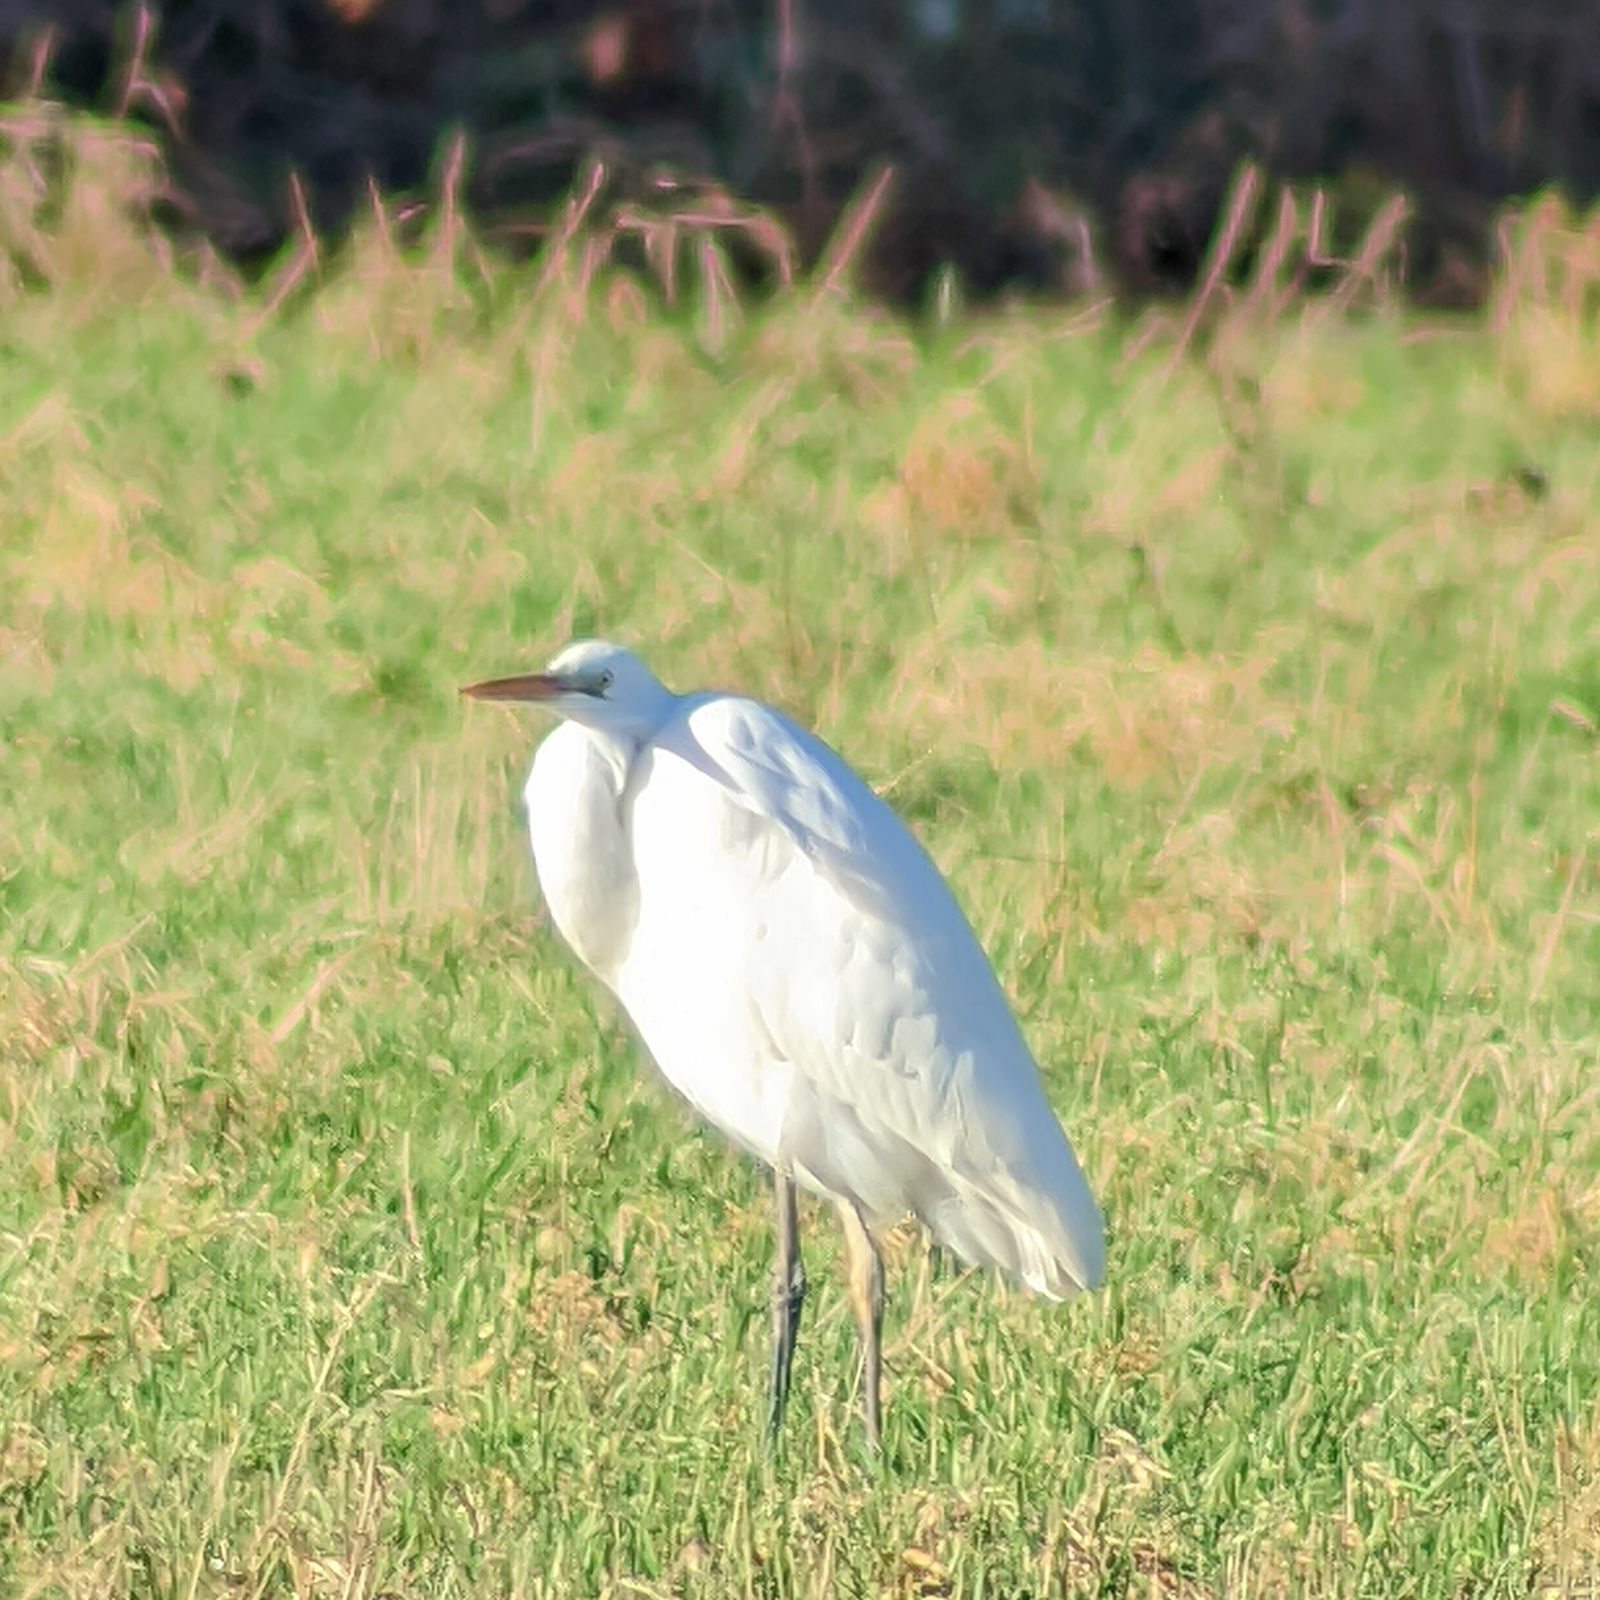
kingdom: Animalia
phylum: Chordata
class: Aves
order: Pelecaniformes
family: Ardeidae
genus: Ardea
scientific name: Ardea alba
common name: Great egret
